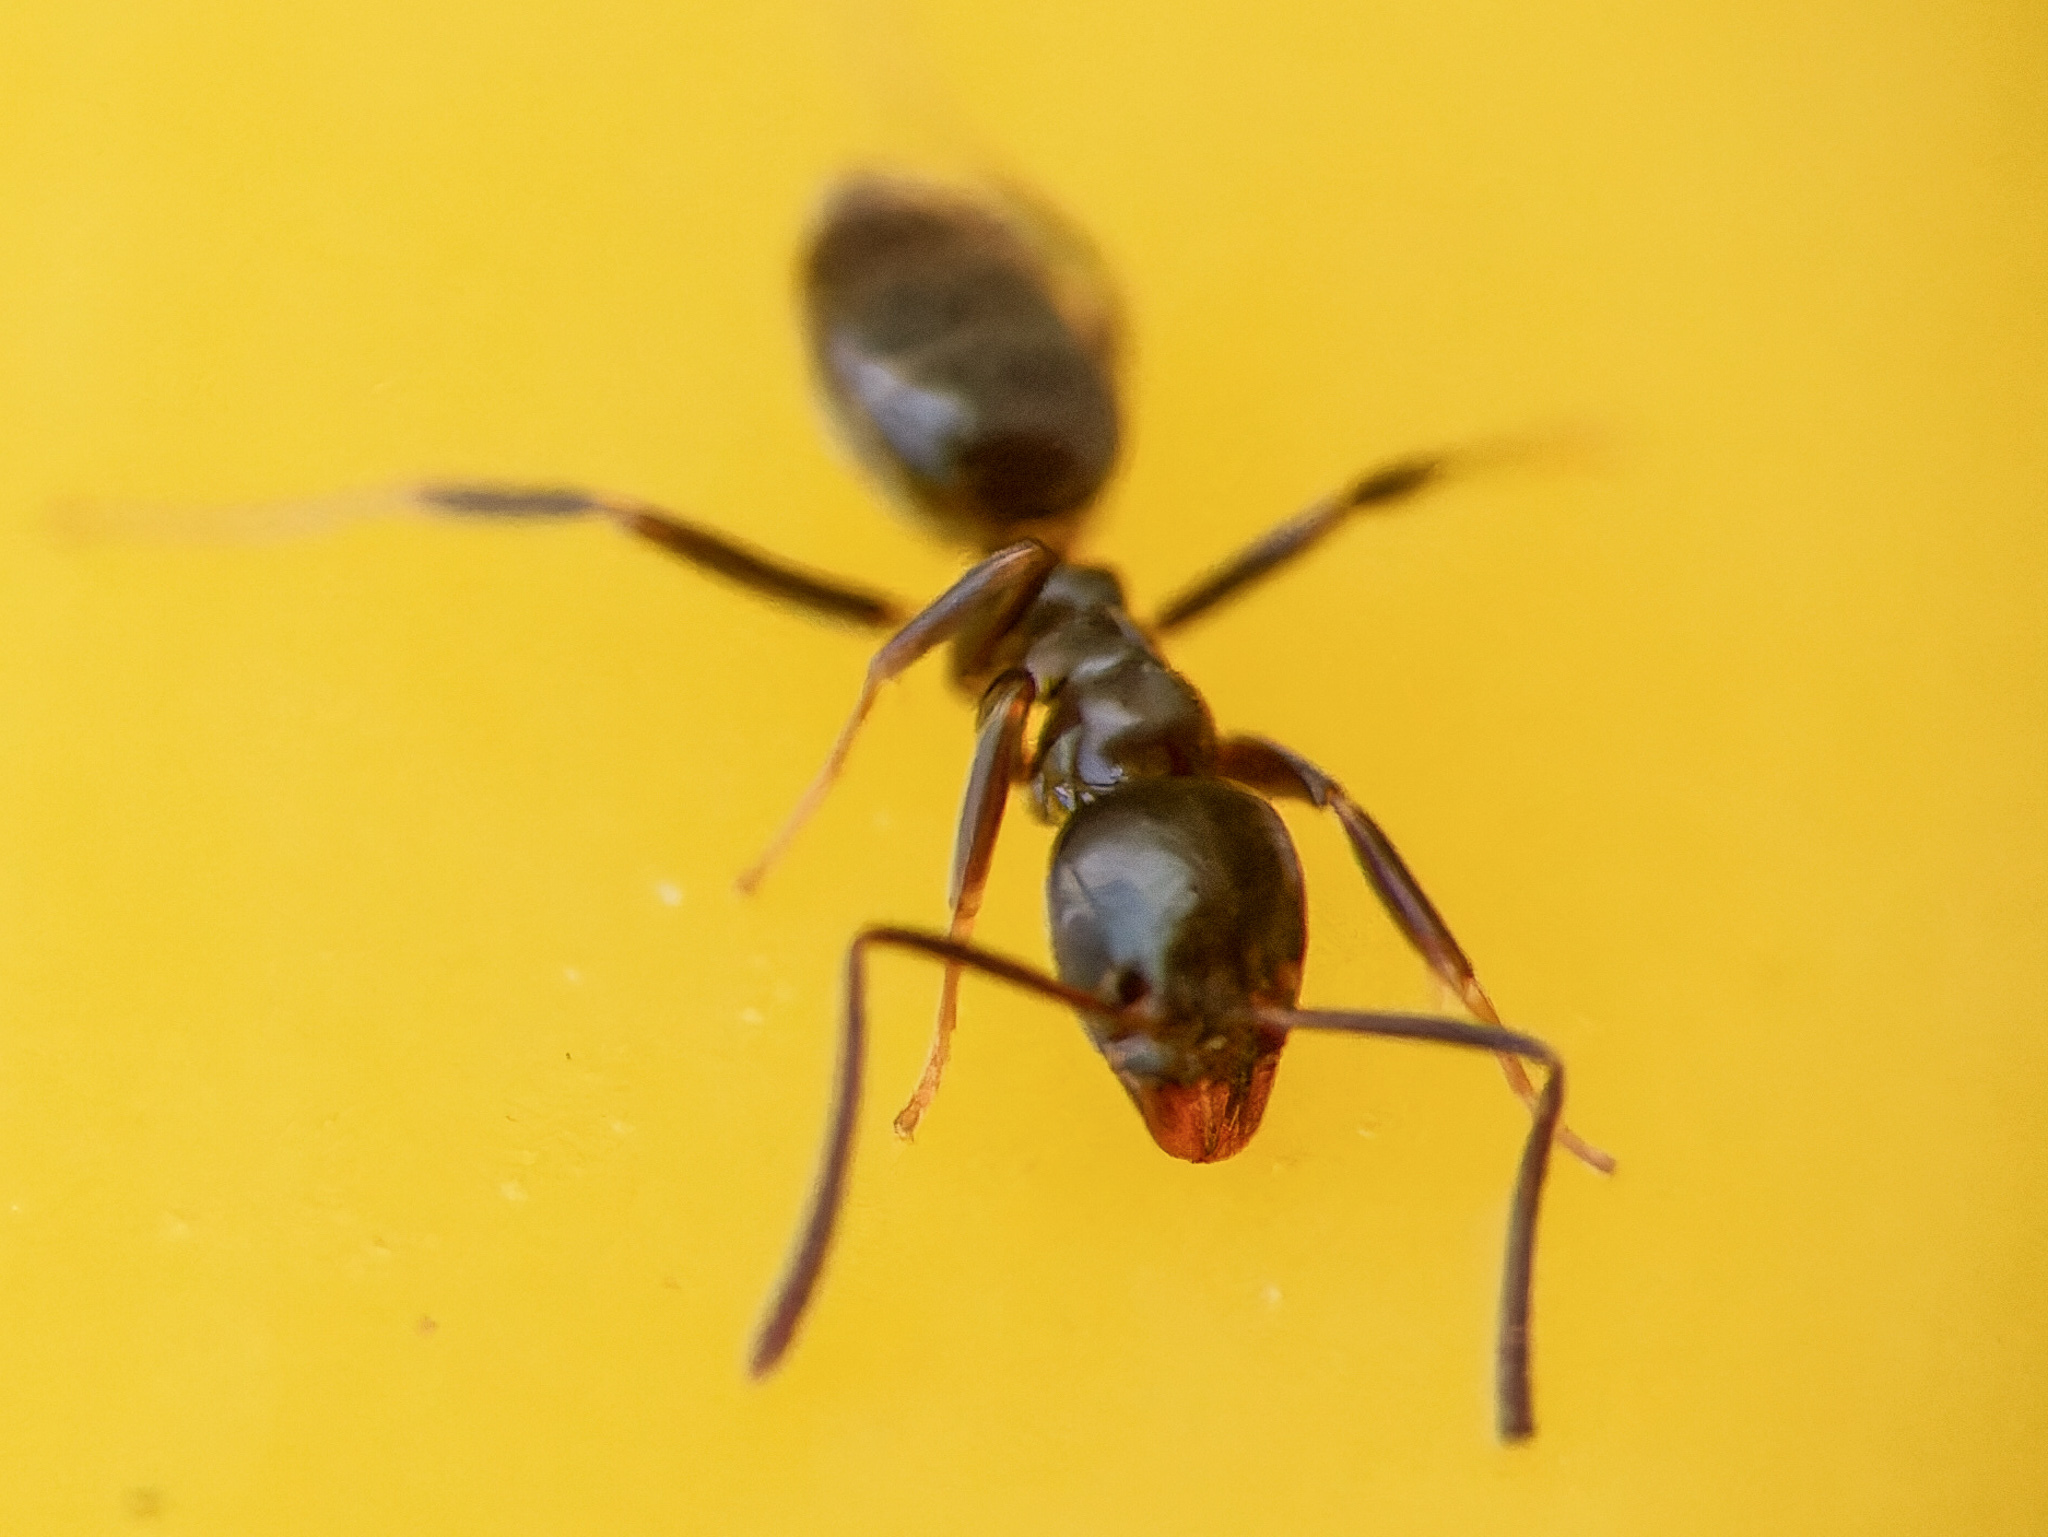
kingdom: Animalia
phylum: Arthropoda
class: Insecta
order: Hymenoptera
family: Formicidae
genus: Tapinoma
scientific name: Tapinoma sessile
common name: Odorous house ant
